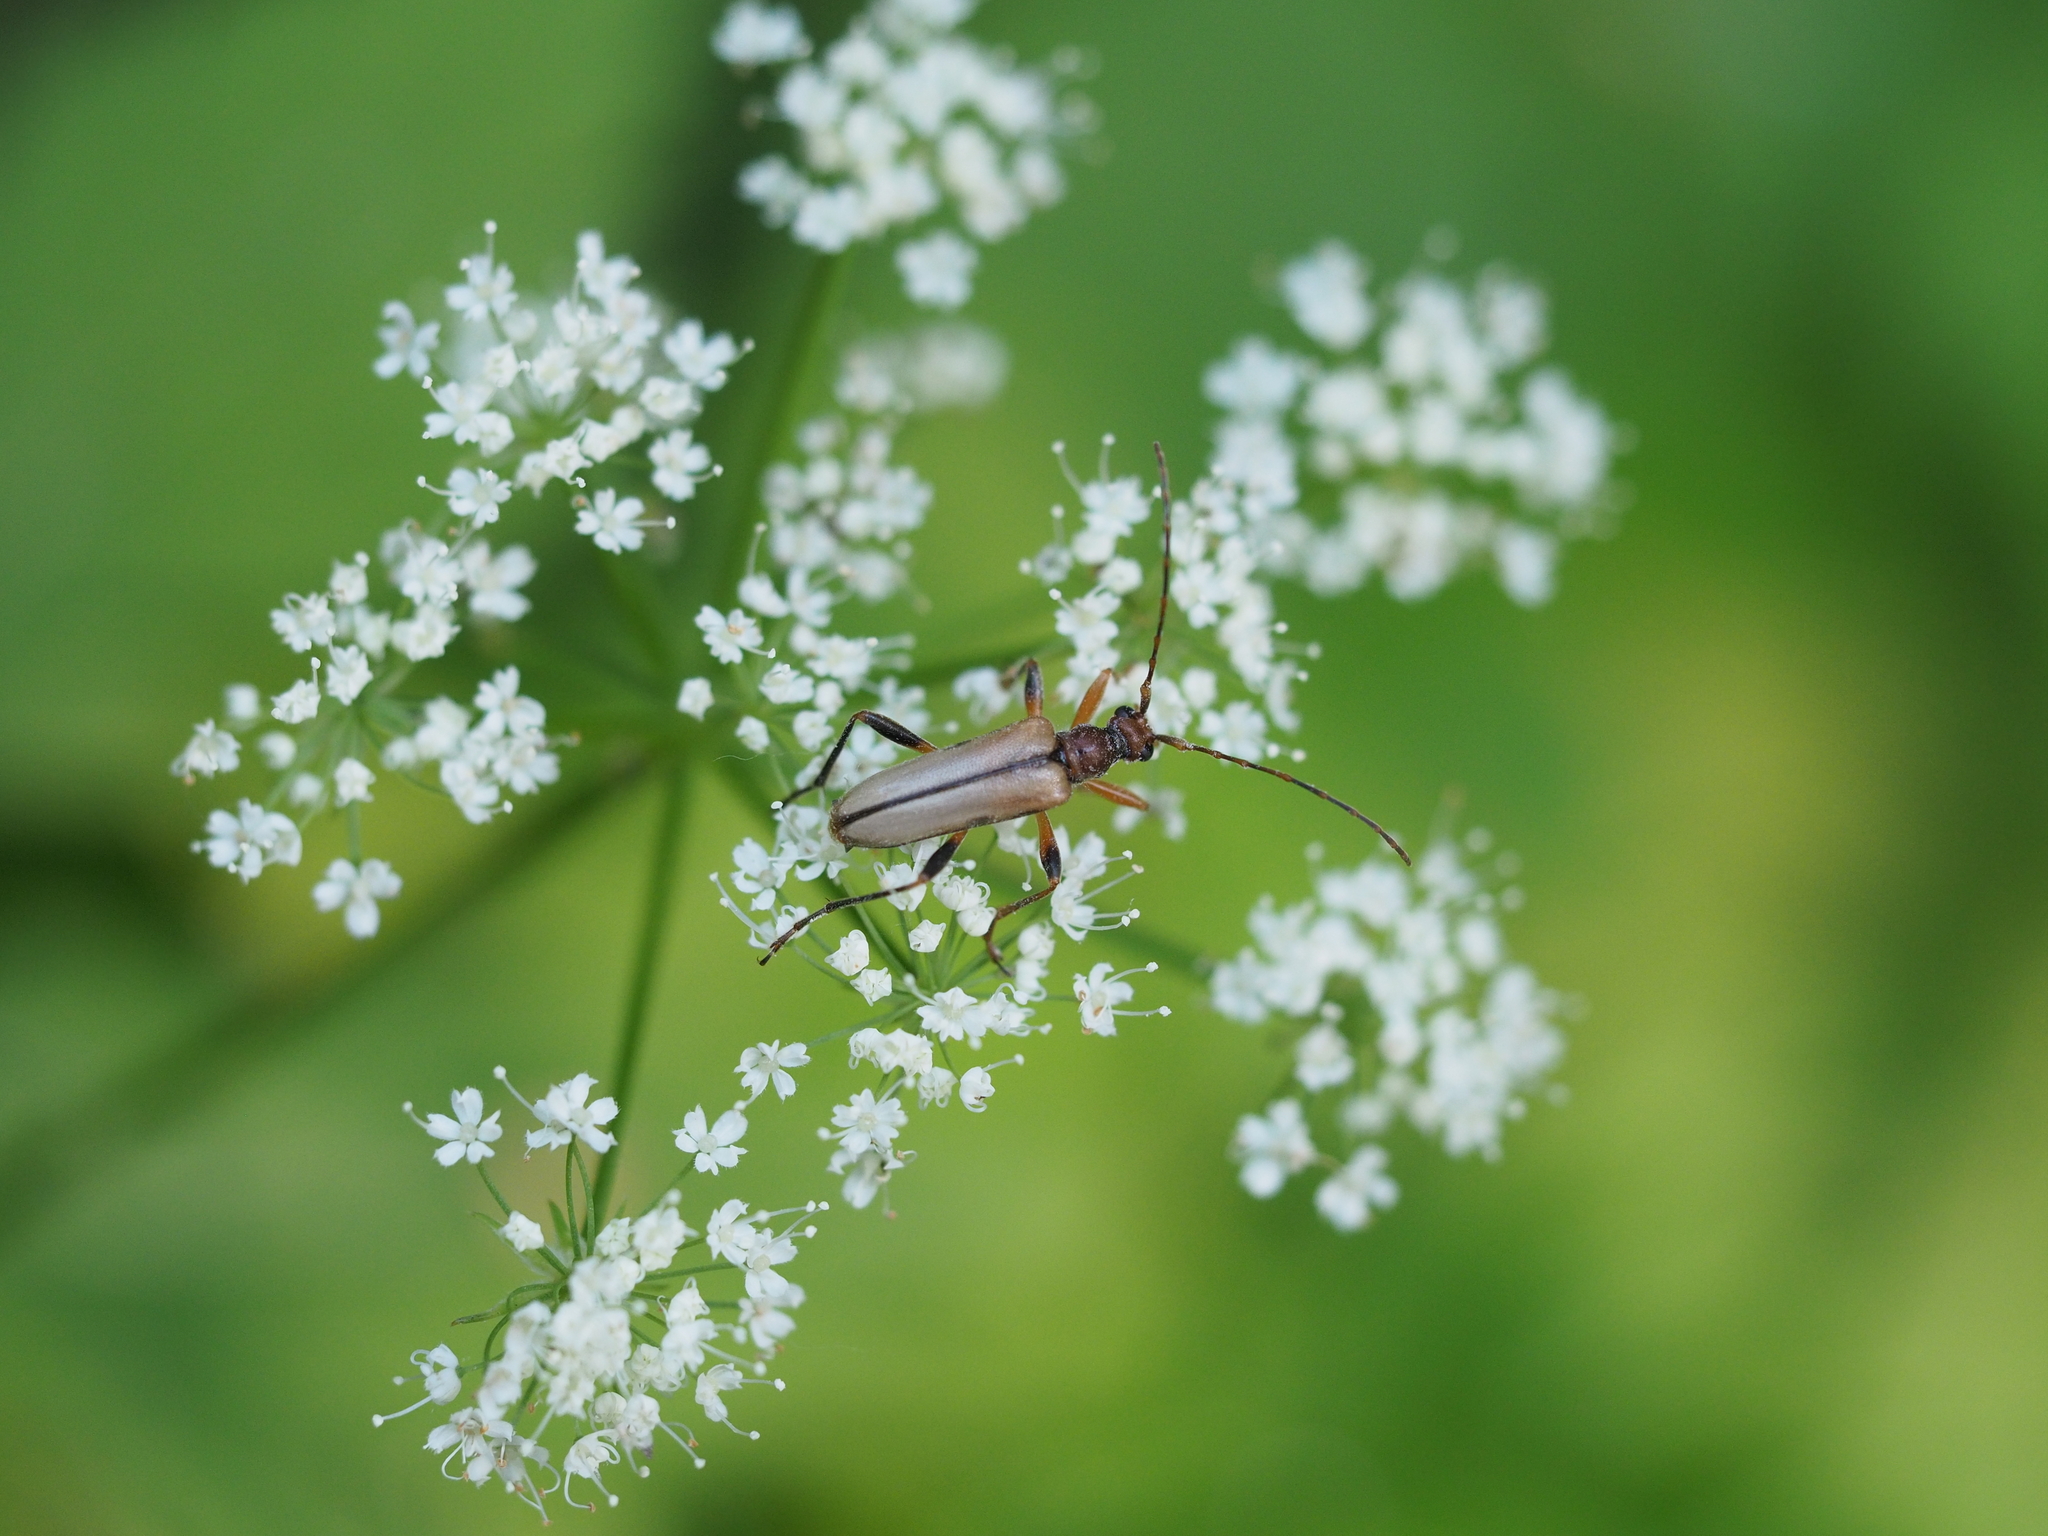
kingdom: Animalia
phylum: Arthropoda
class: Insecta
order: Coleoptera
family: Cerambycidae
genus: Pidonia
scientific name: Pidonia lurida
